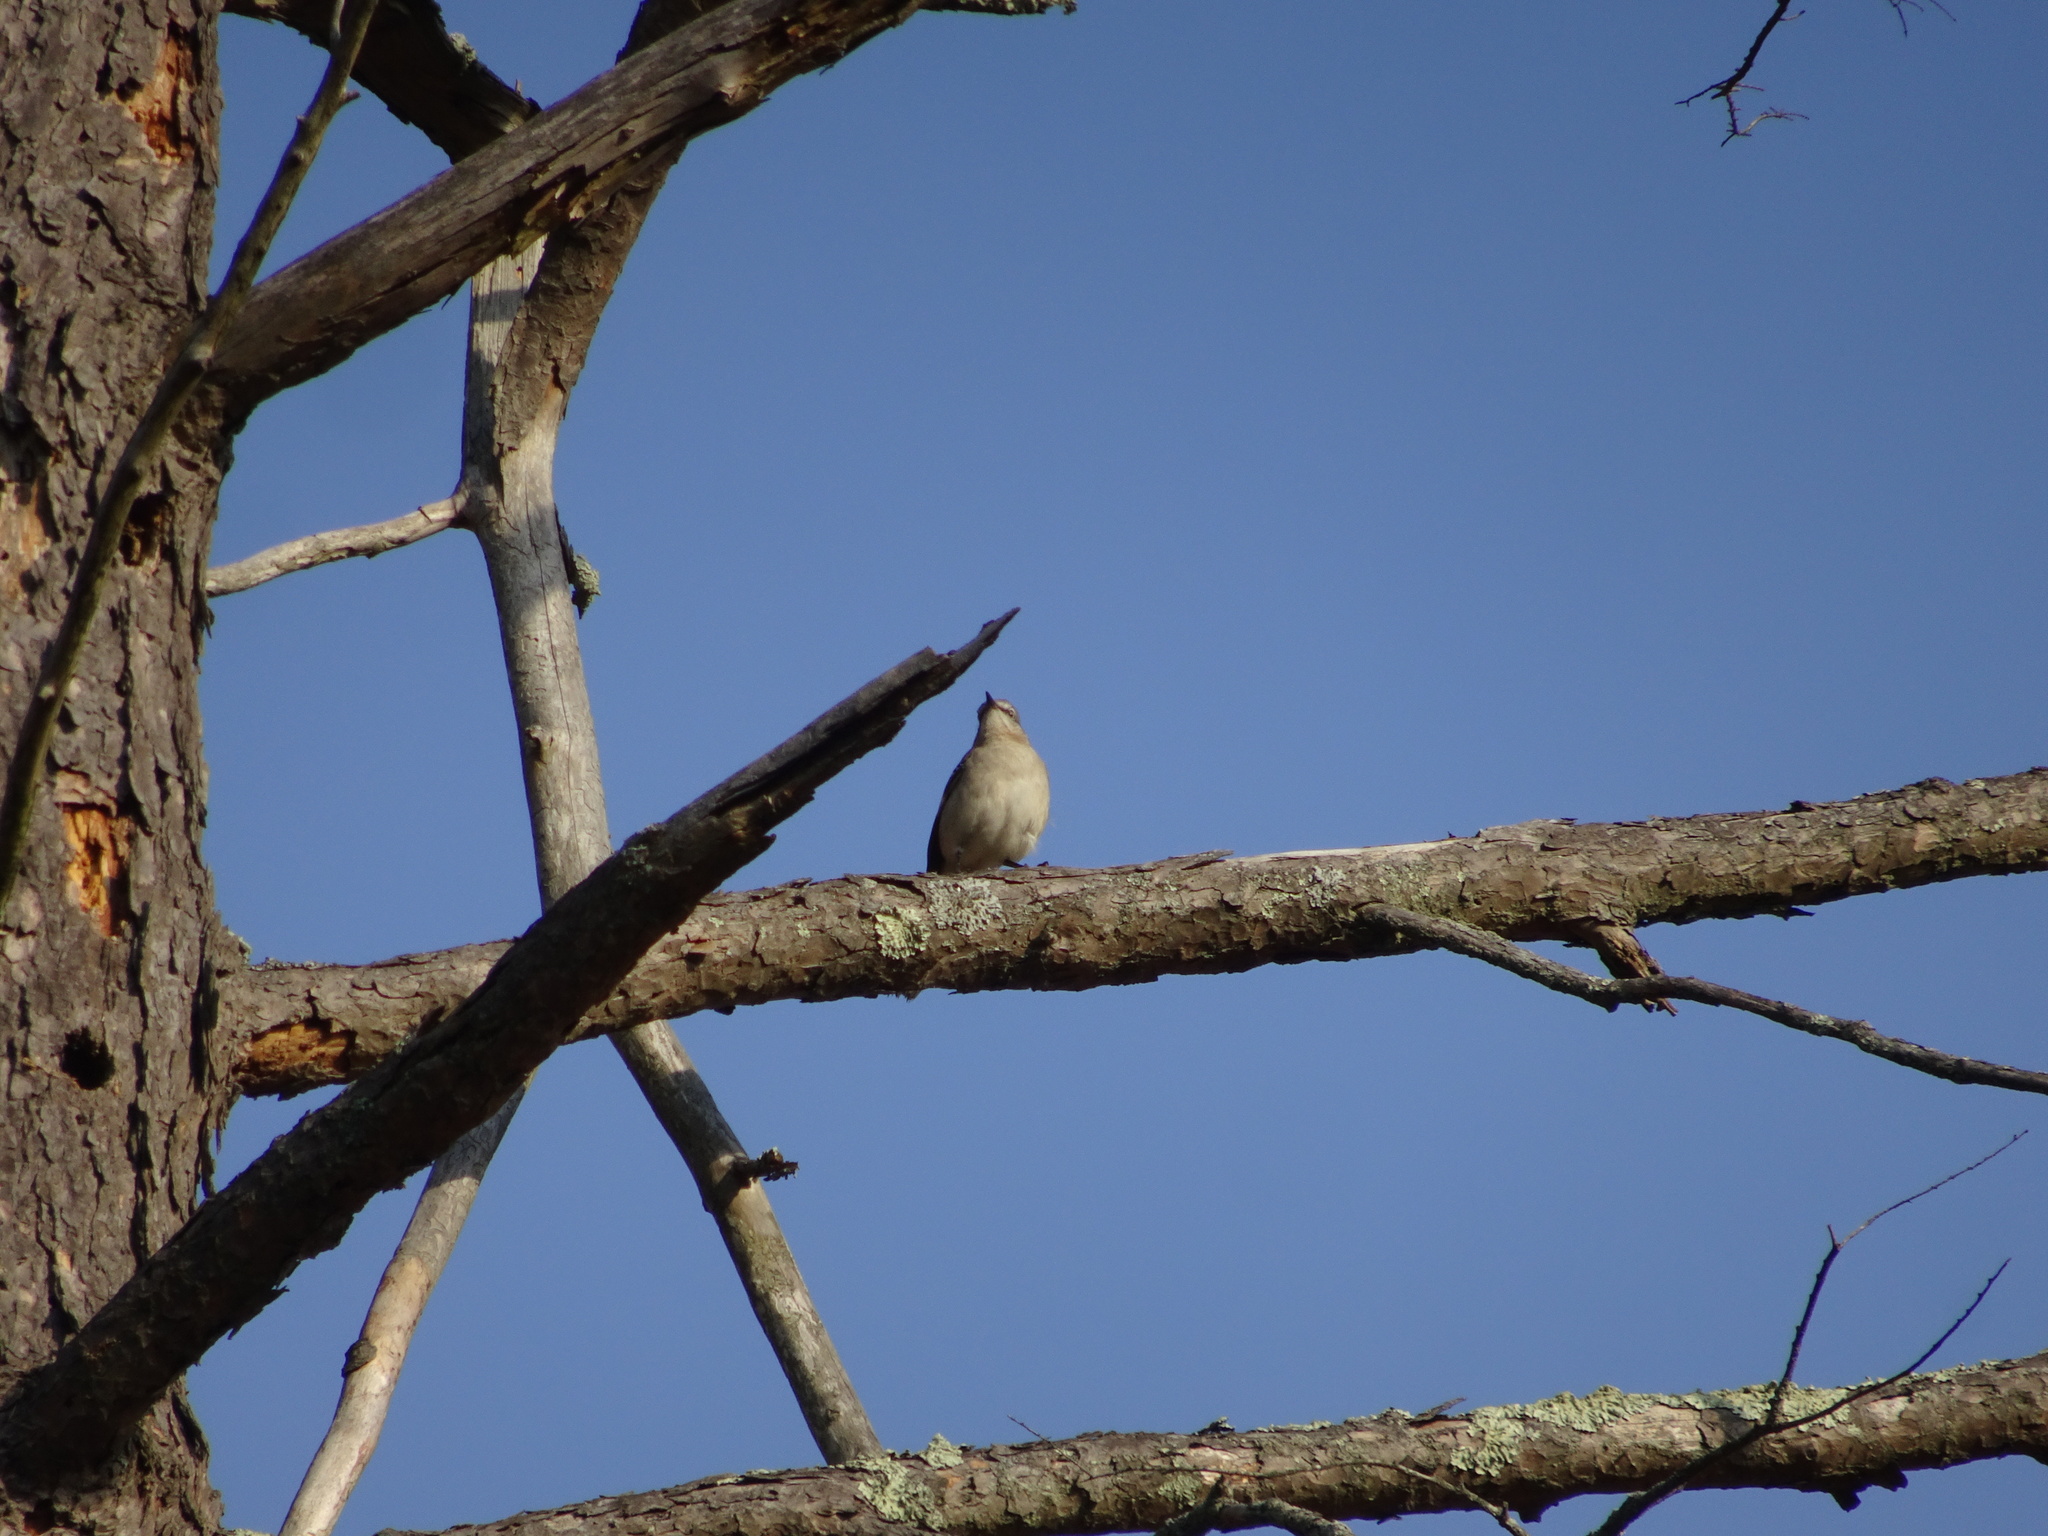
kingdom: Animalia
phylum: Chordata
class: Aves
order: Passeriformes
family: Mimidae
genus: Mimus
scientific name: Mimus polyglottos
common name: Northern mockingbird
